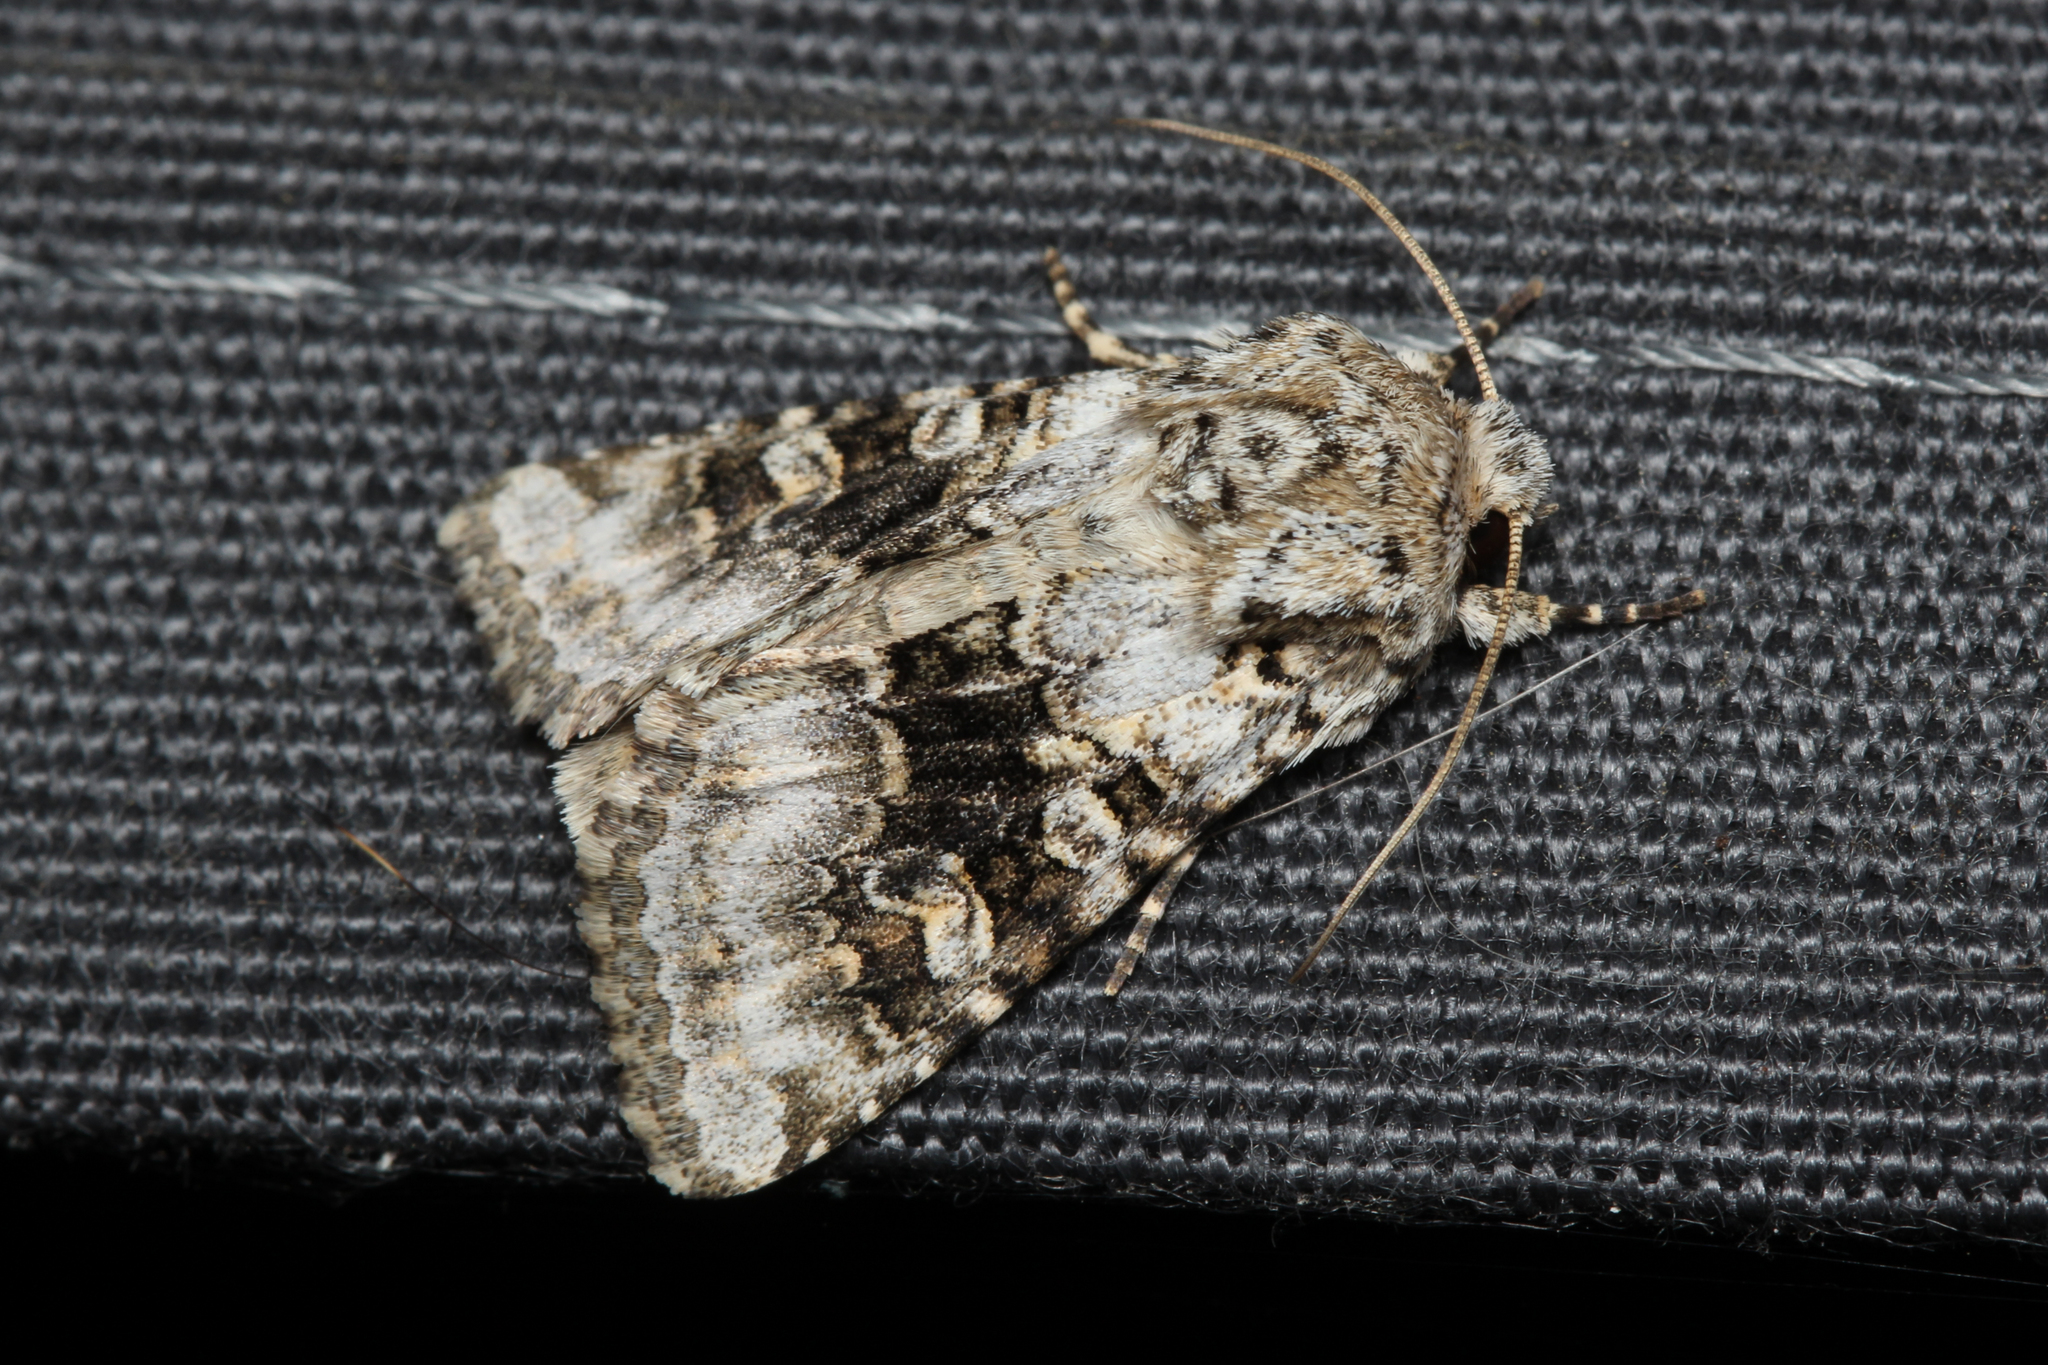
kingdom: Animalia
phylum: Arthropoda
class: Insecta
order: Lepidoptera
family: Noctuidae
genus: Hecatera
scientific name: Hecatera bicolorata
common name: Broad-barred white
